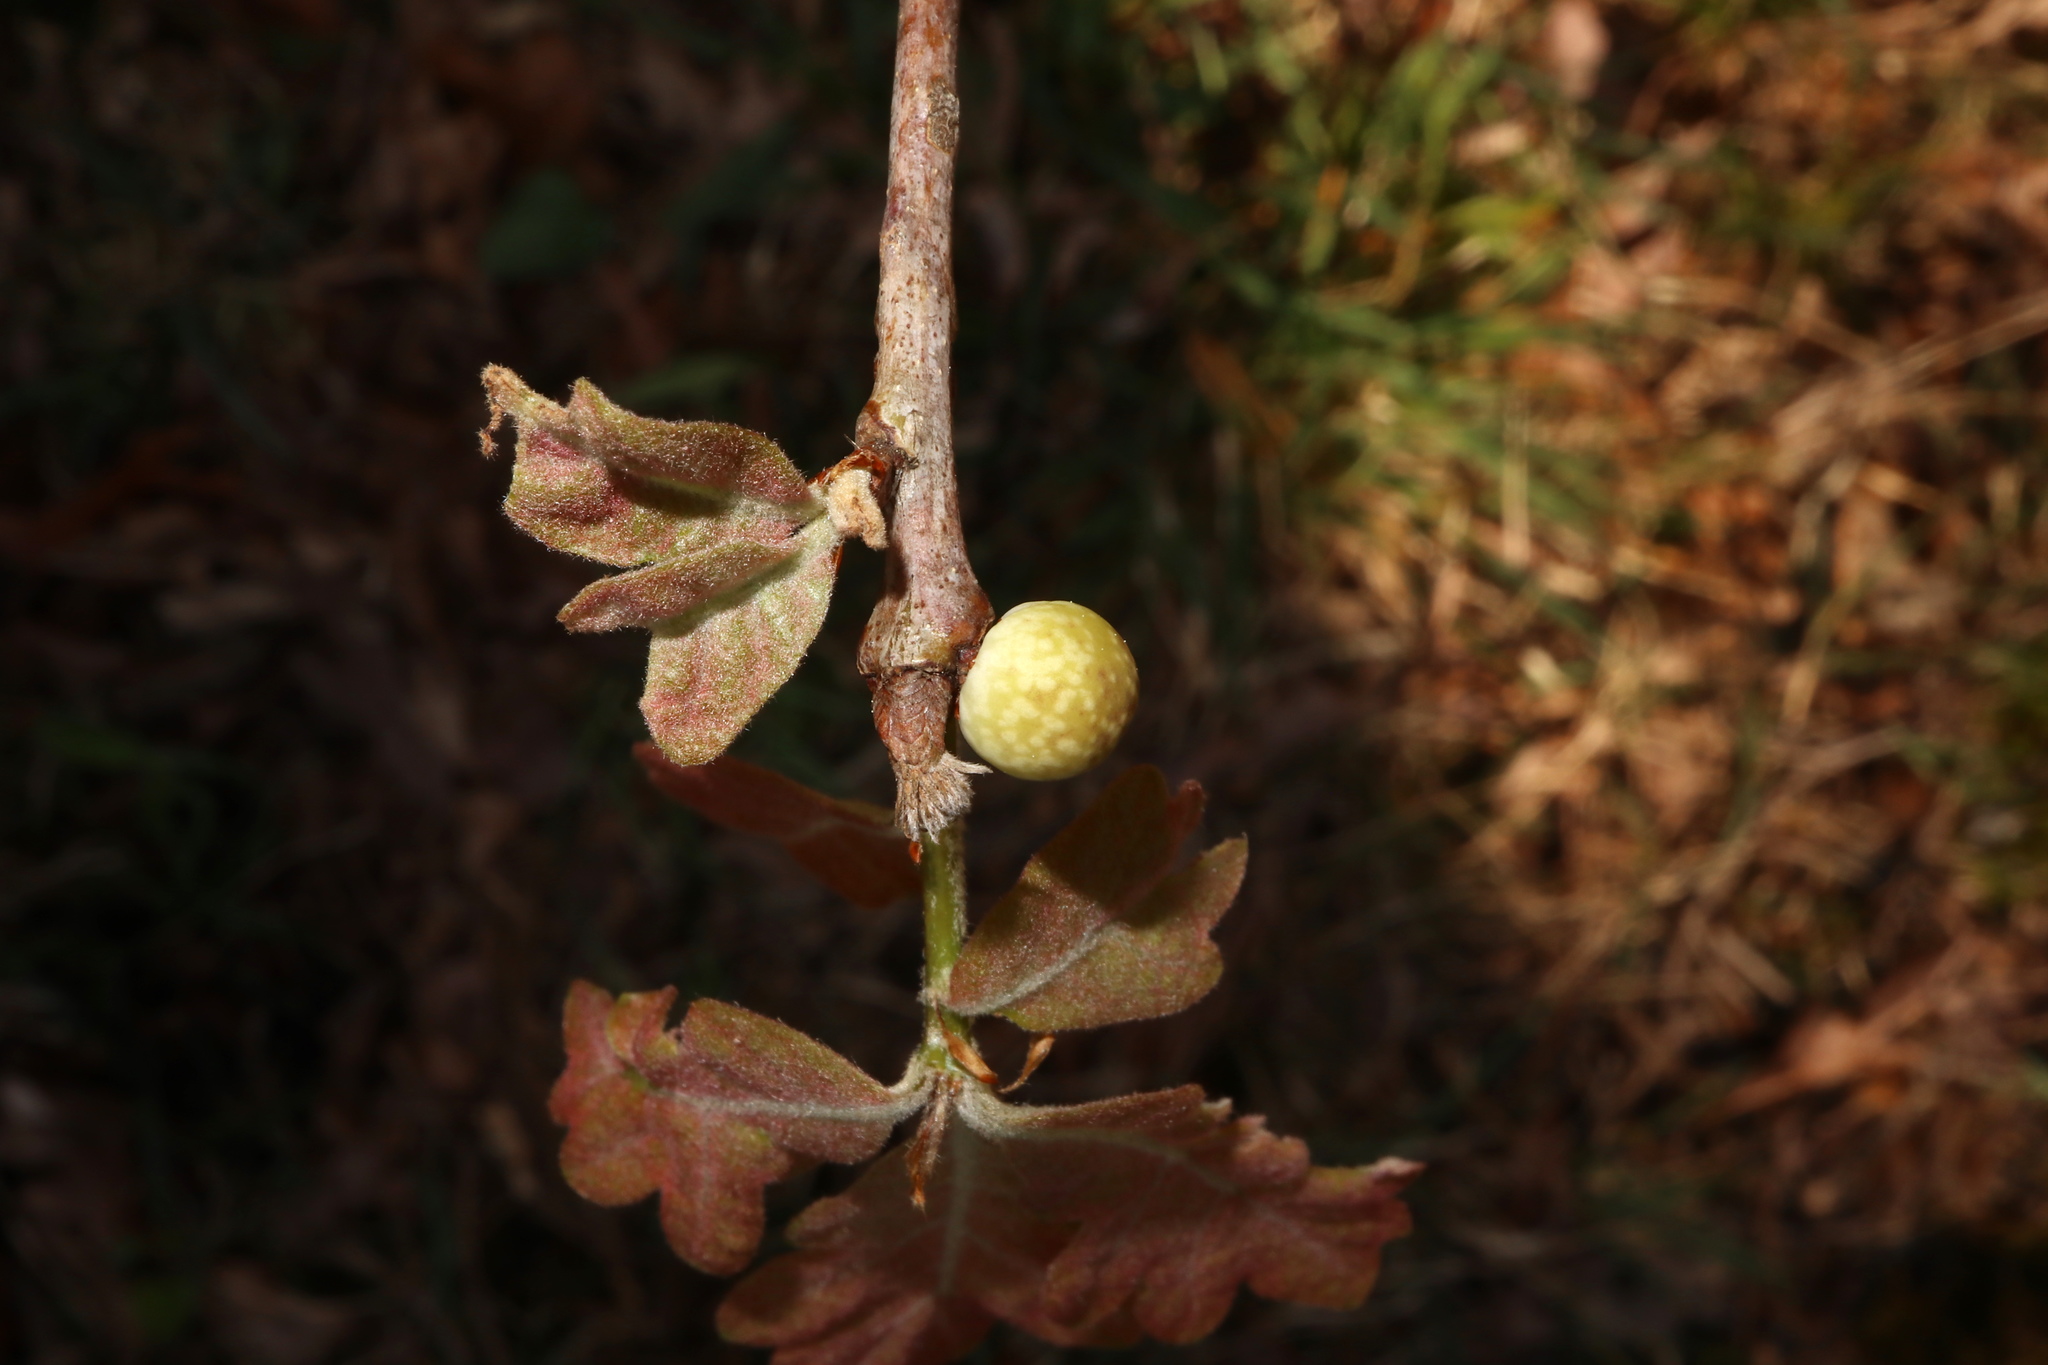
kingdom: Animalia
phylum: Arthropoda
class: Insecta
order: Hymenoptera
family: Cynipidae
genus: Andricus
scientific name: Andricus
